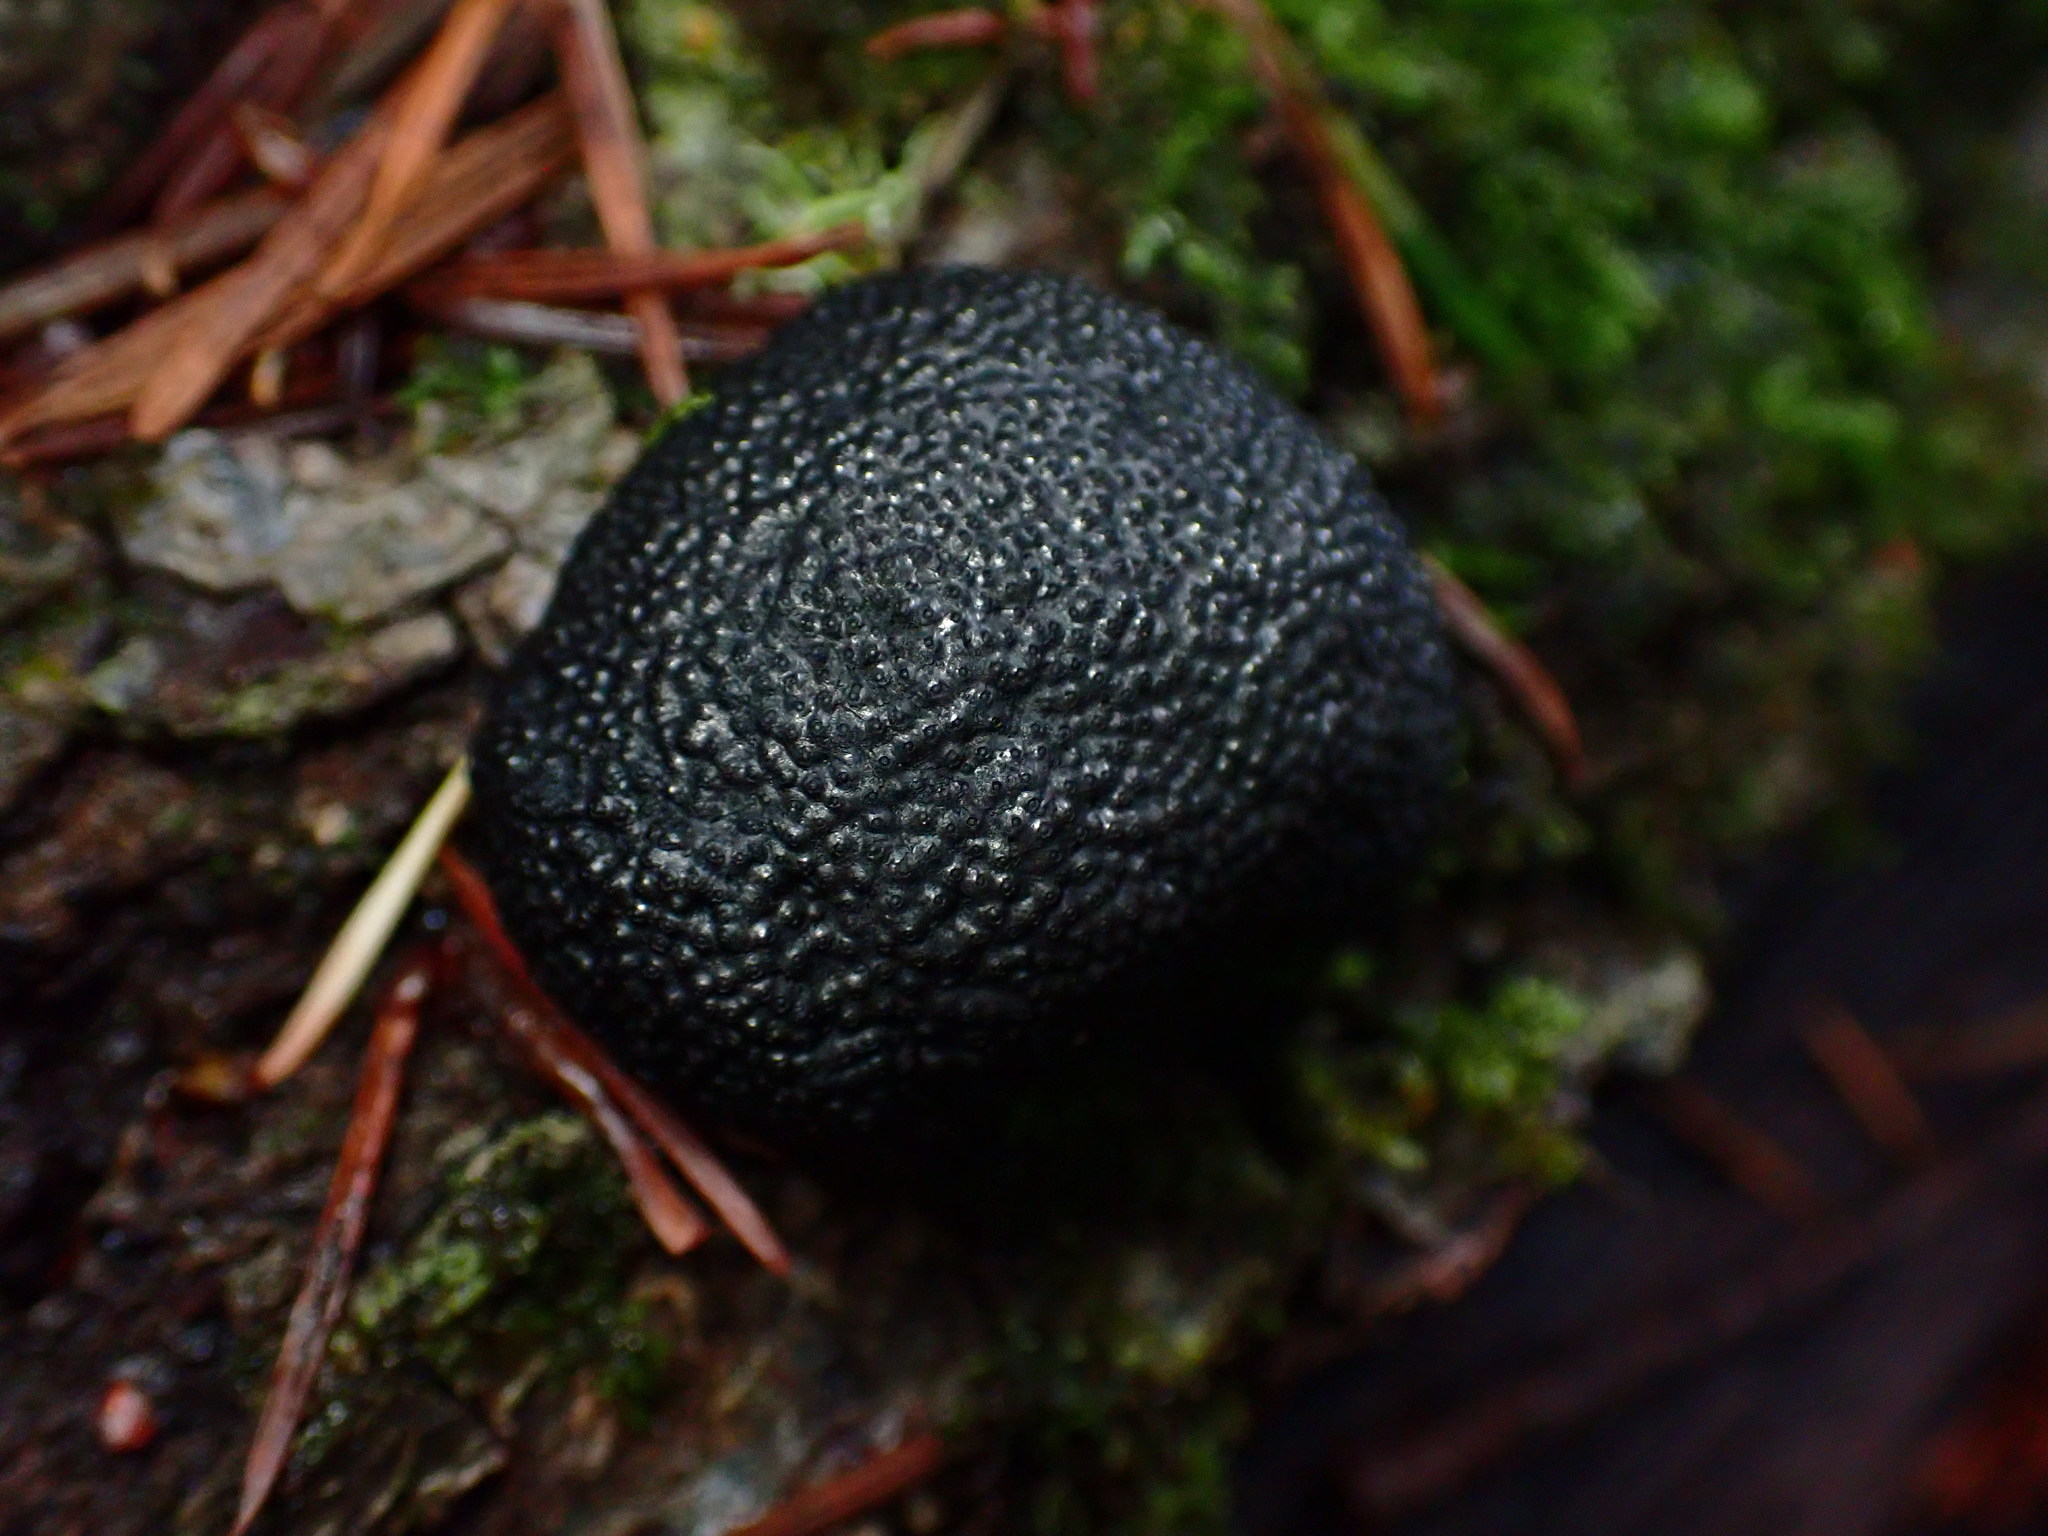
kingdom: Fungi
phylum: Ascomycota
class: Sordariomycetes
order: Xylariales
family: Hypoxylaceae
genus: Annulohypoxylon
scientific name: Annulohypoxylon thouarsianum
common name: Cramp balls
